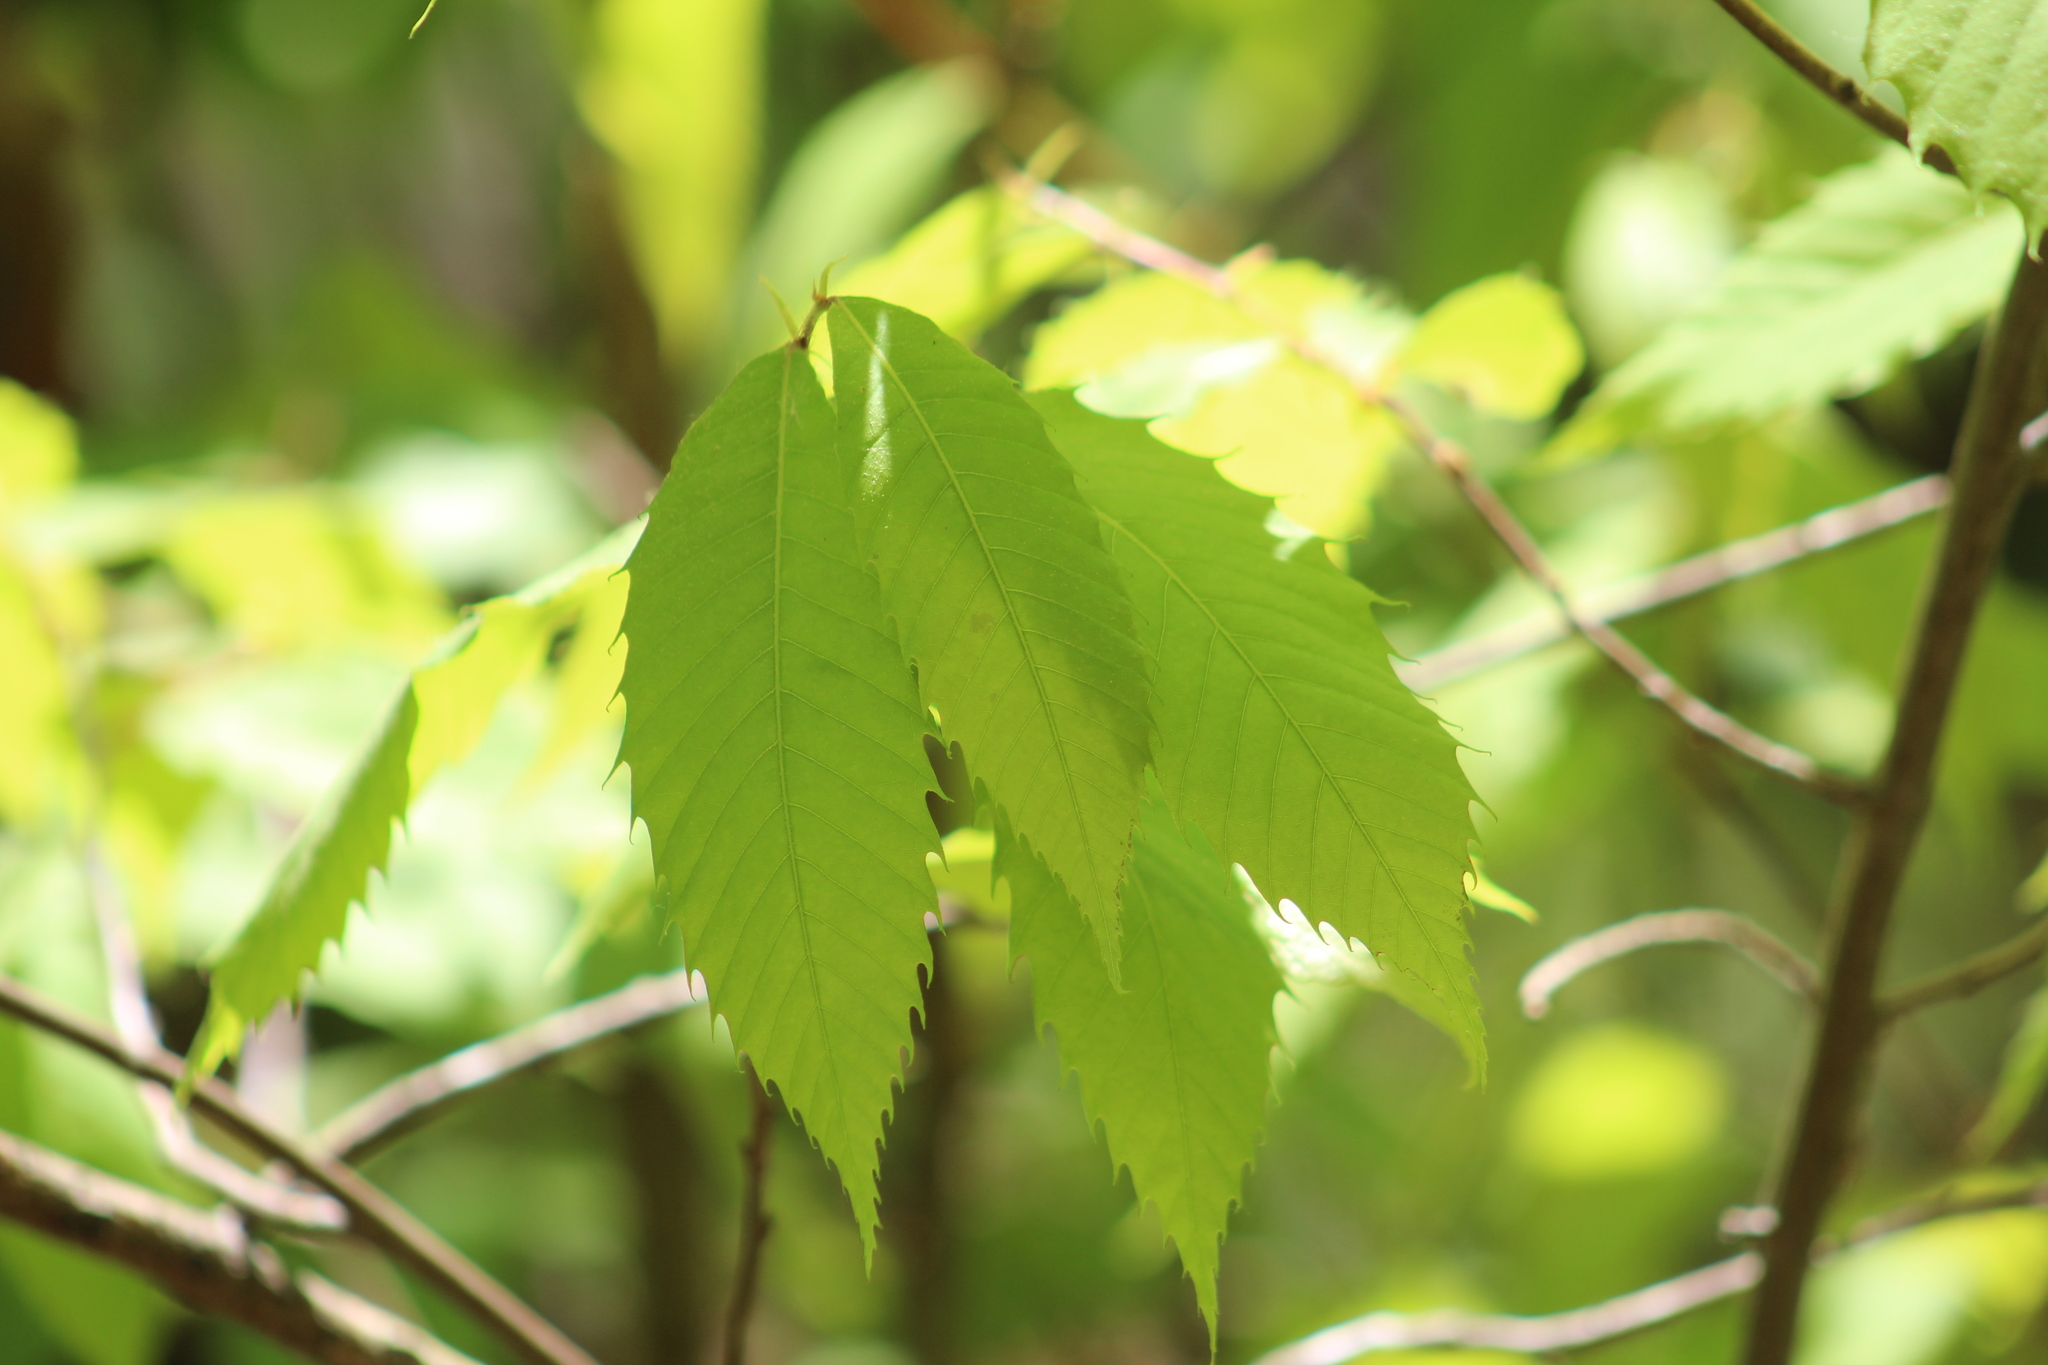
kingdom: Plantae
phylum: Tracheophyta
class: Magnoliopsida
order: Fagales
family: Fagaceae
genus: Castanea
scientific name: Castanea dentata
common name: American chestnut
